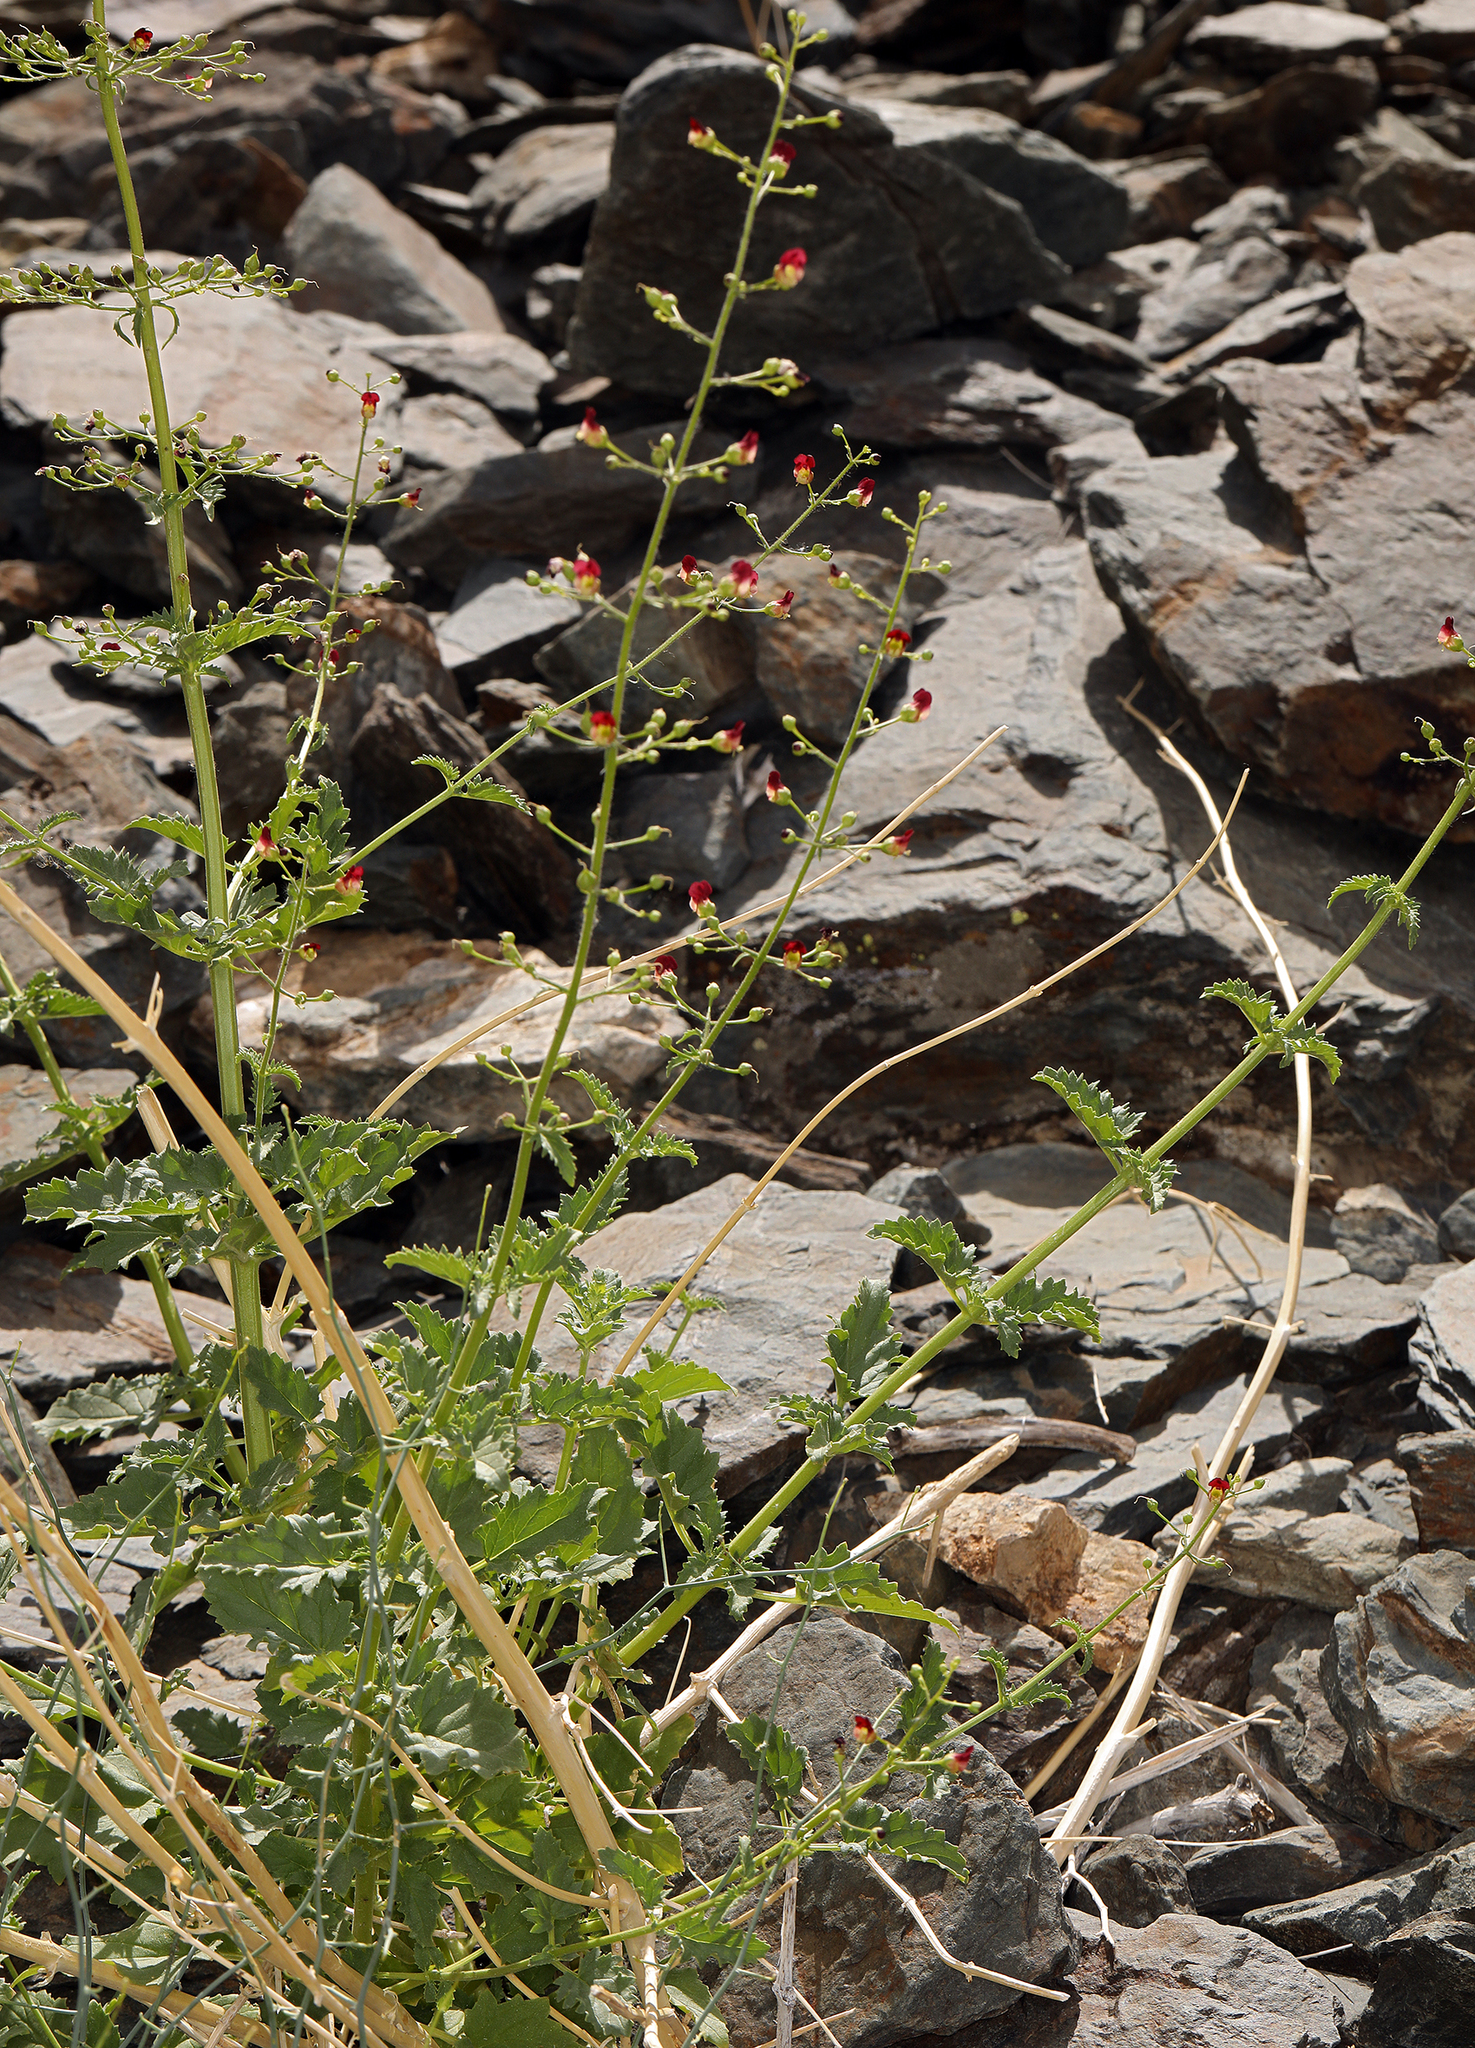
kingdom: Plantae
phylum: Tracheophyta
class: Magnoliopsida
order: Lamiales
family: Scrophulariaceae
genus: Scrophularia
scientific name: Scrophularia desertorum
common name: Desert figwort
